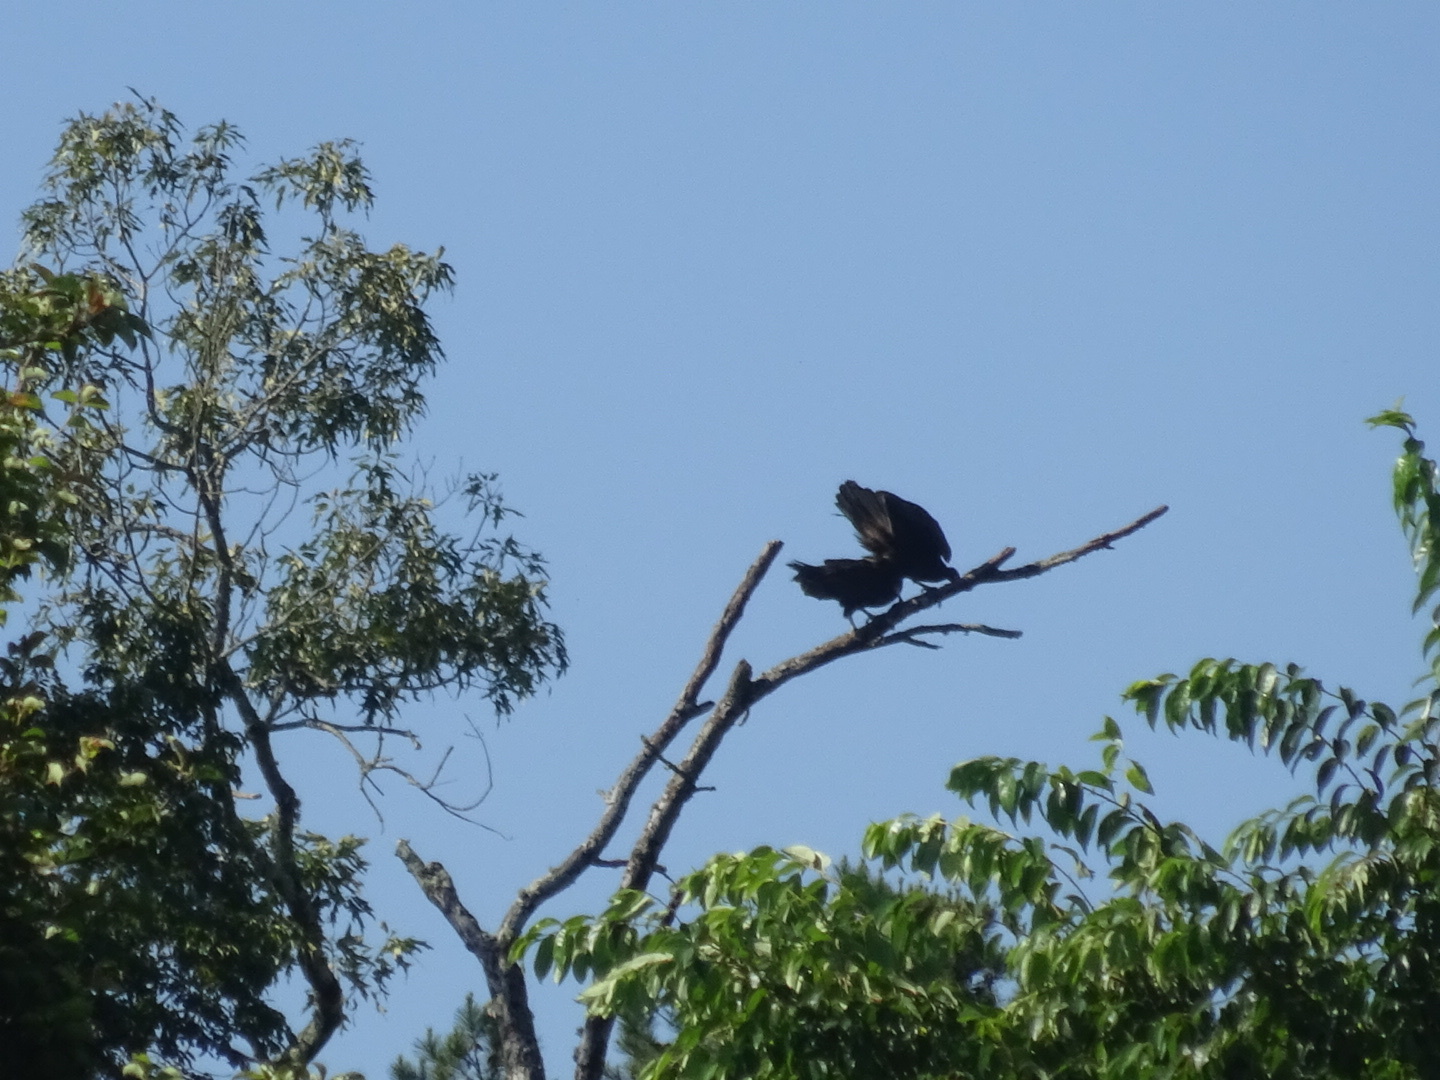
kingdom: Animalia
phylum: Chordata
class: Aves
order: Accipitriformes
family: Cathartidae
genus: Cathartes
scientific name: Cathartes aura
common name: Turkey vulture
